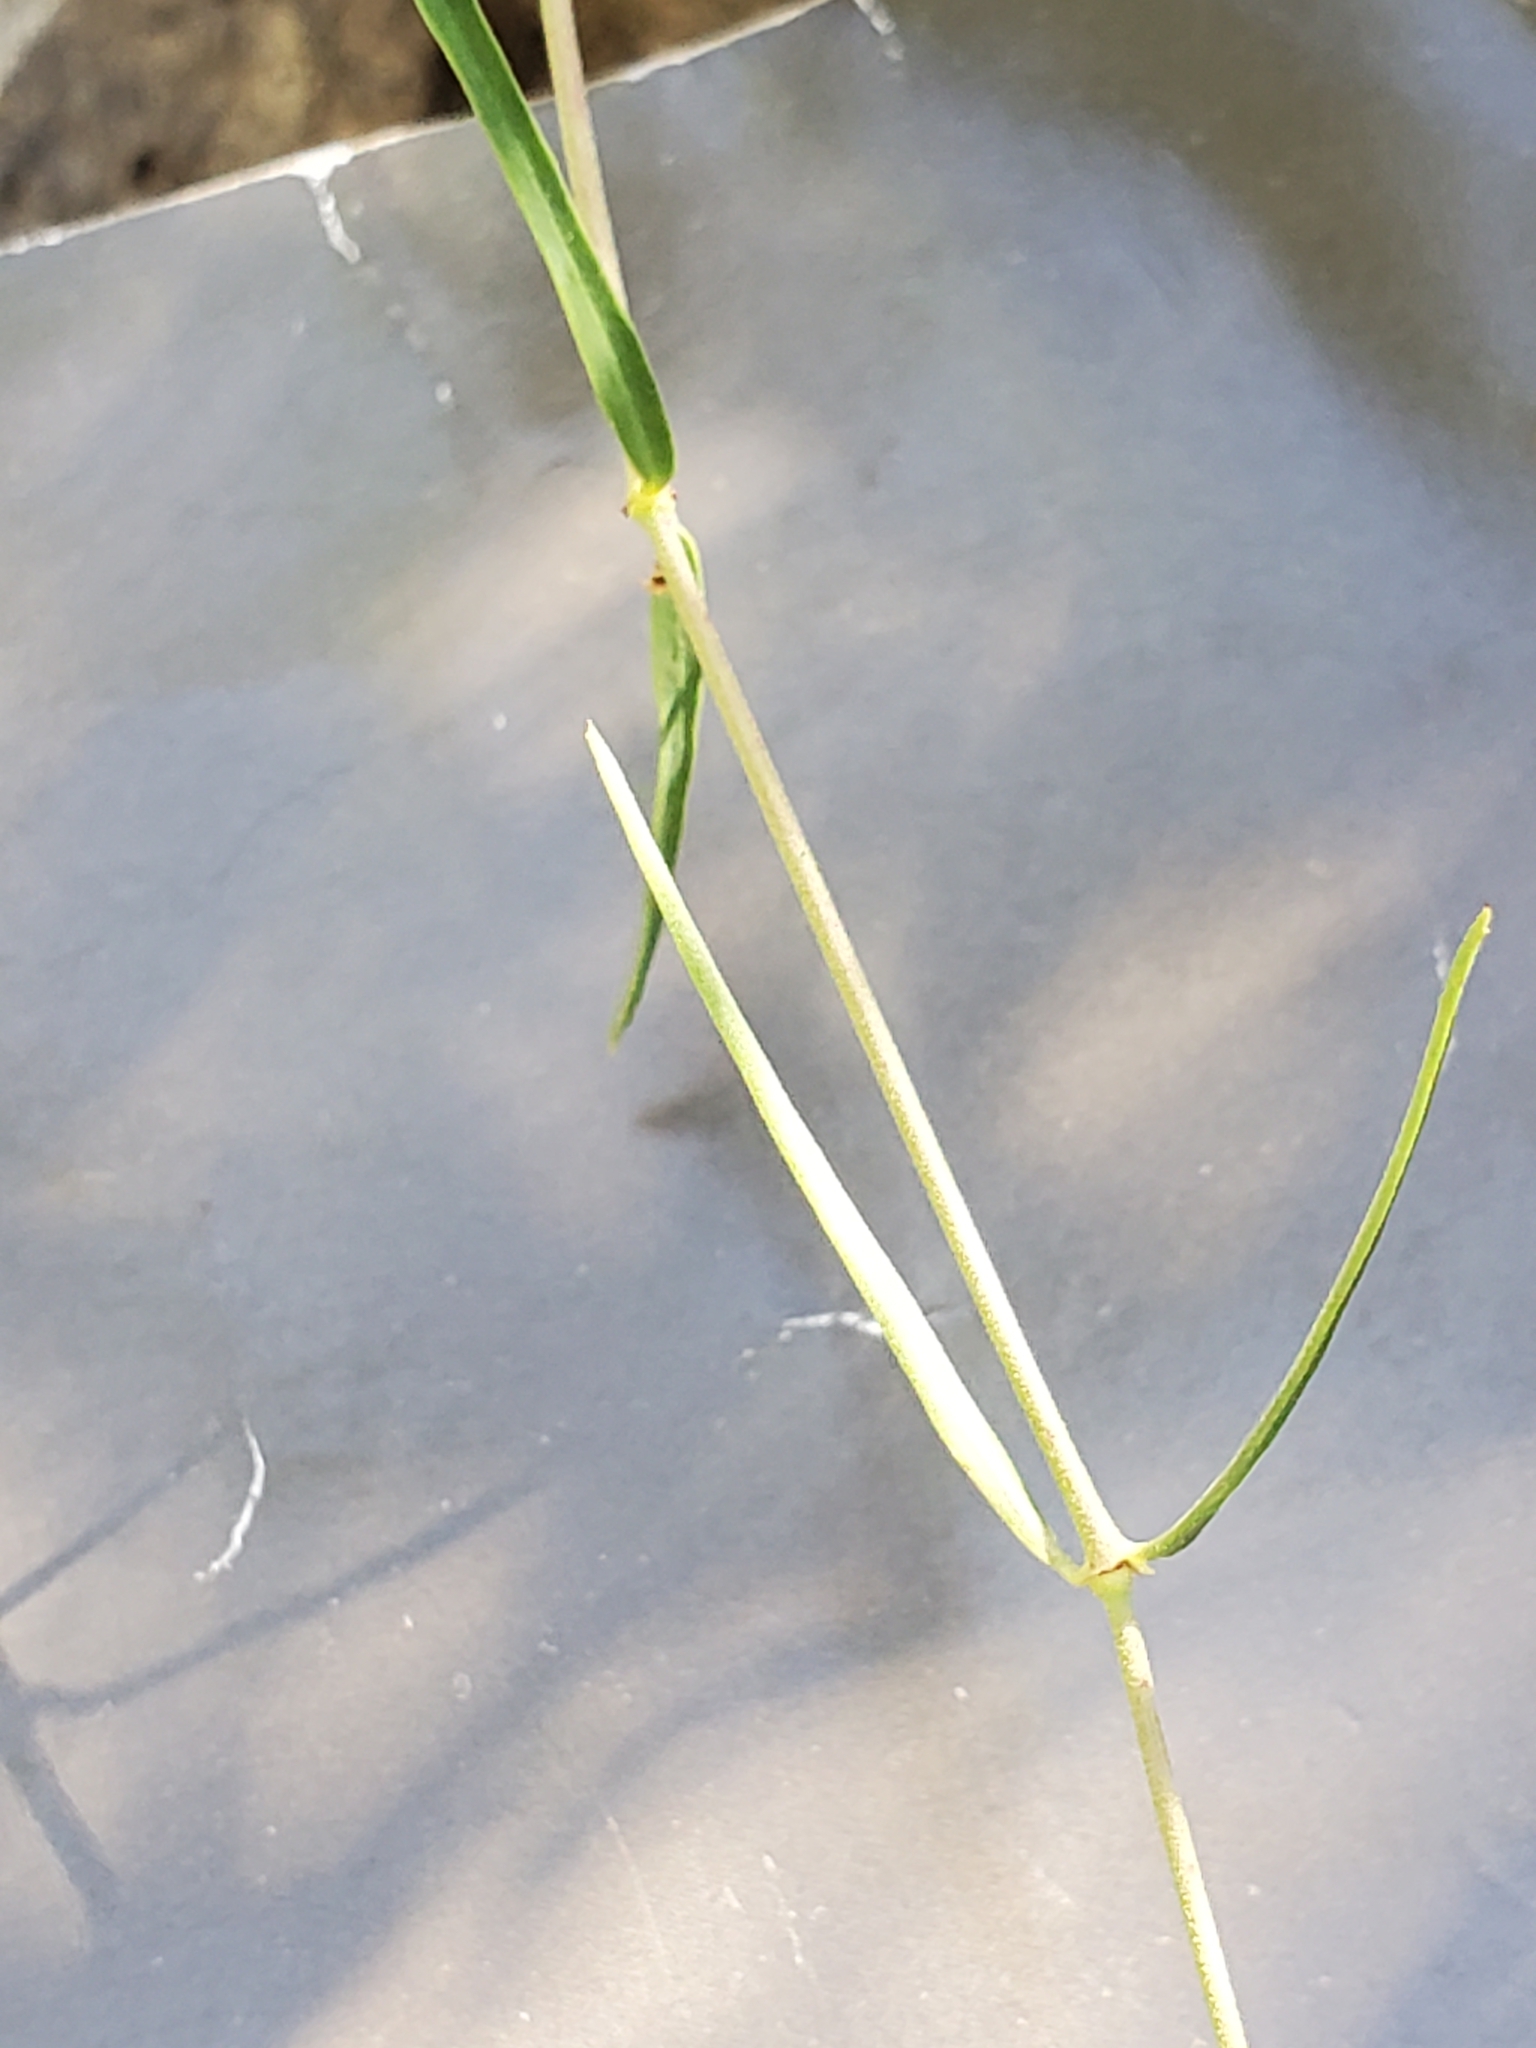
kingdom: Plantae
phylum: Tracheophyta
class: Magnoliopsida
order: Malpighiales
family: Euphorbiaceae
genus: Euphorbia
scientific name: Euphorbia angusta
